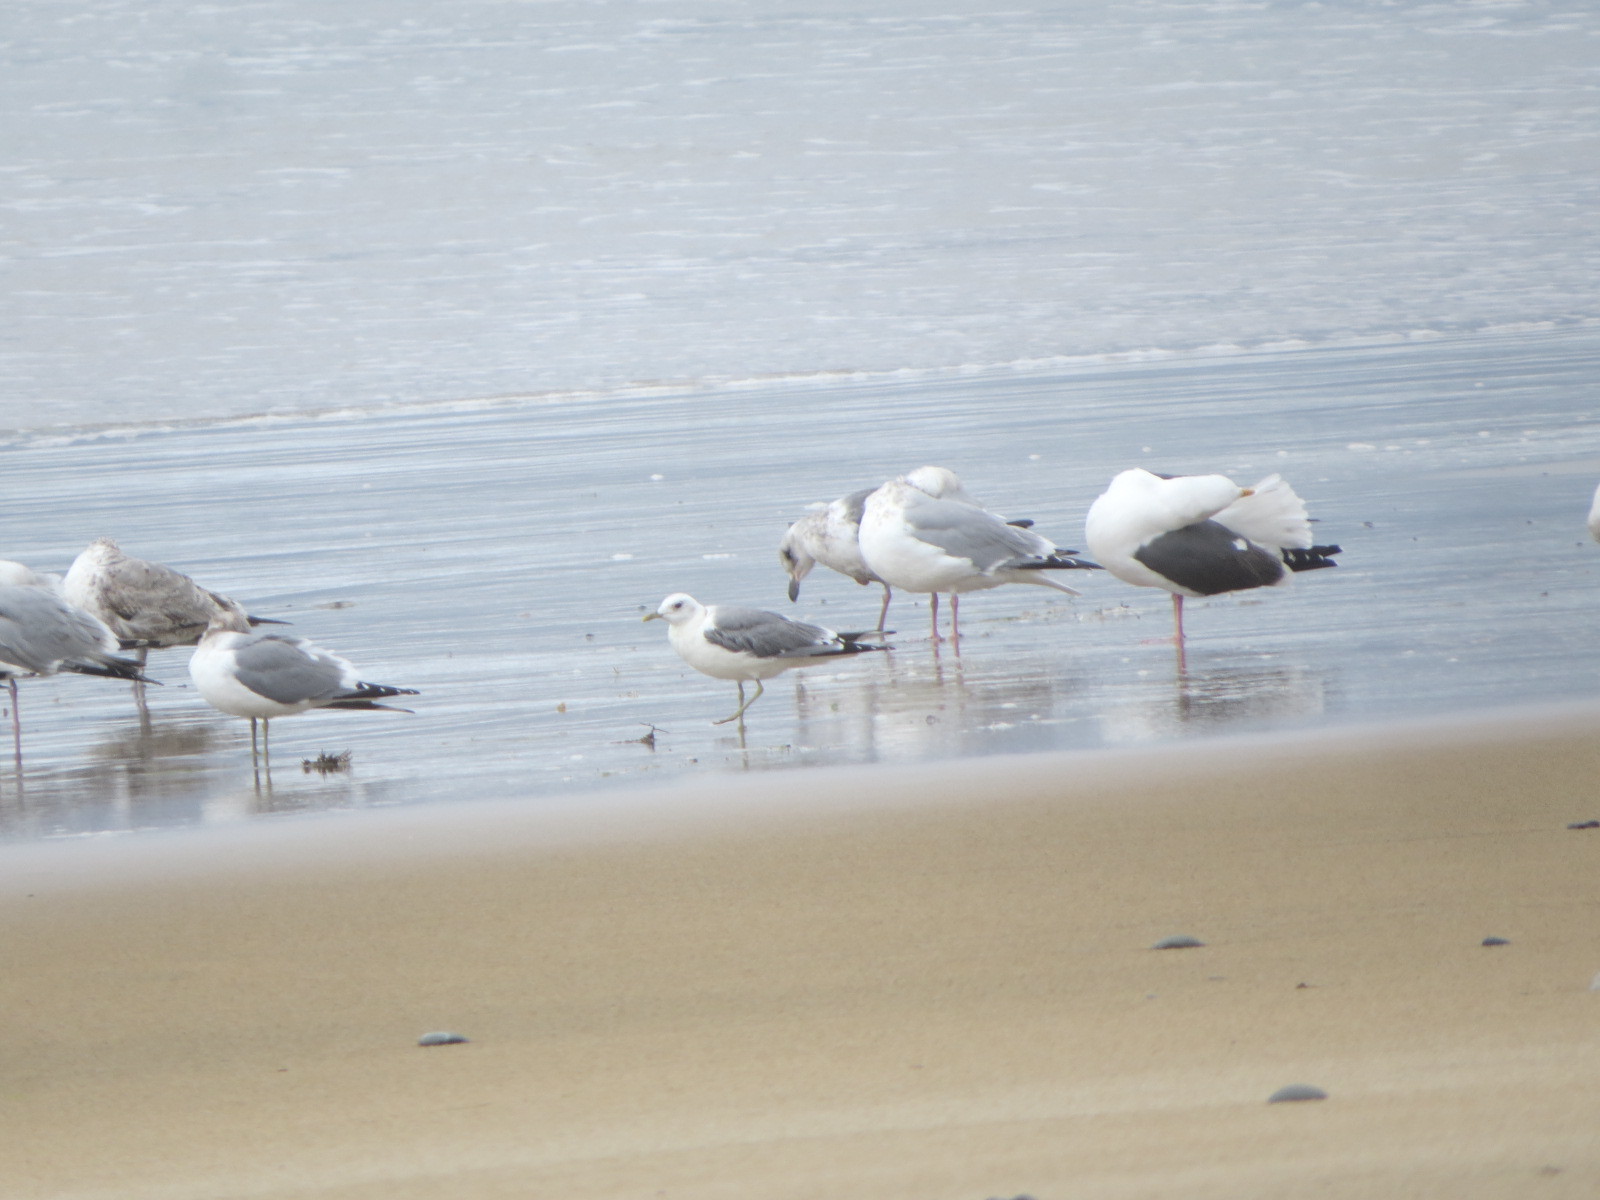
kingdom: Animalia
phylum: Chordata
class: Aves
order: Charadriiformes
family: Laridae
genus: Larus
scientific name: Larus brachyrhynchus
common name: Short-billed gull
